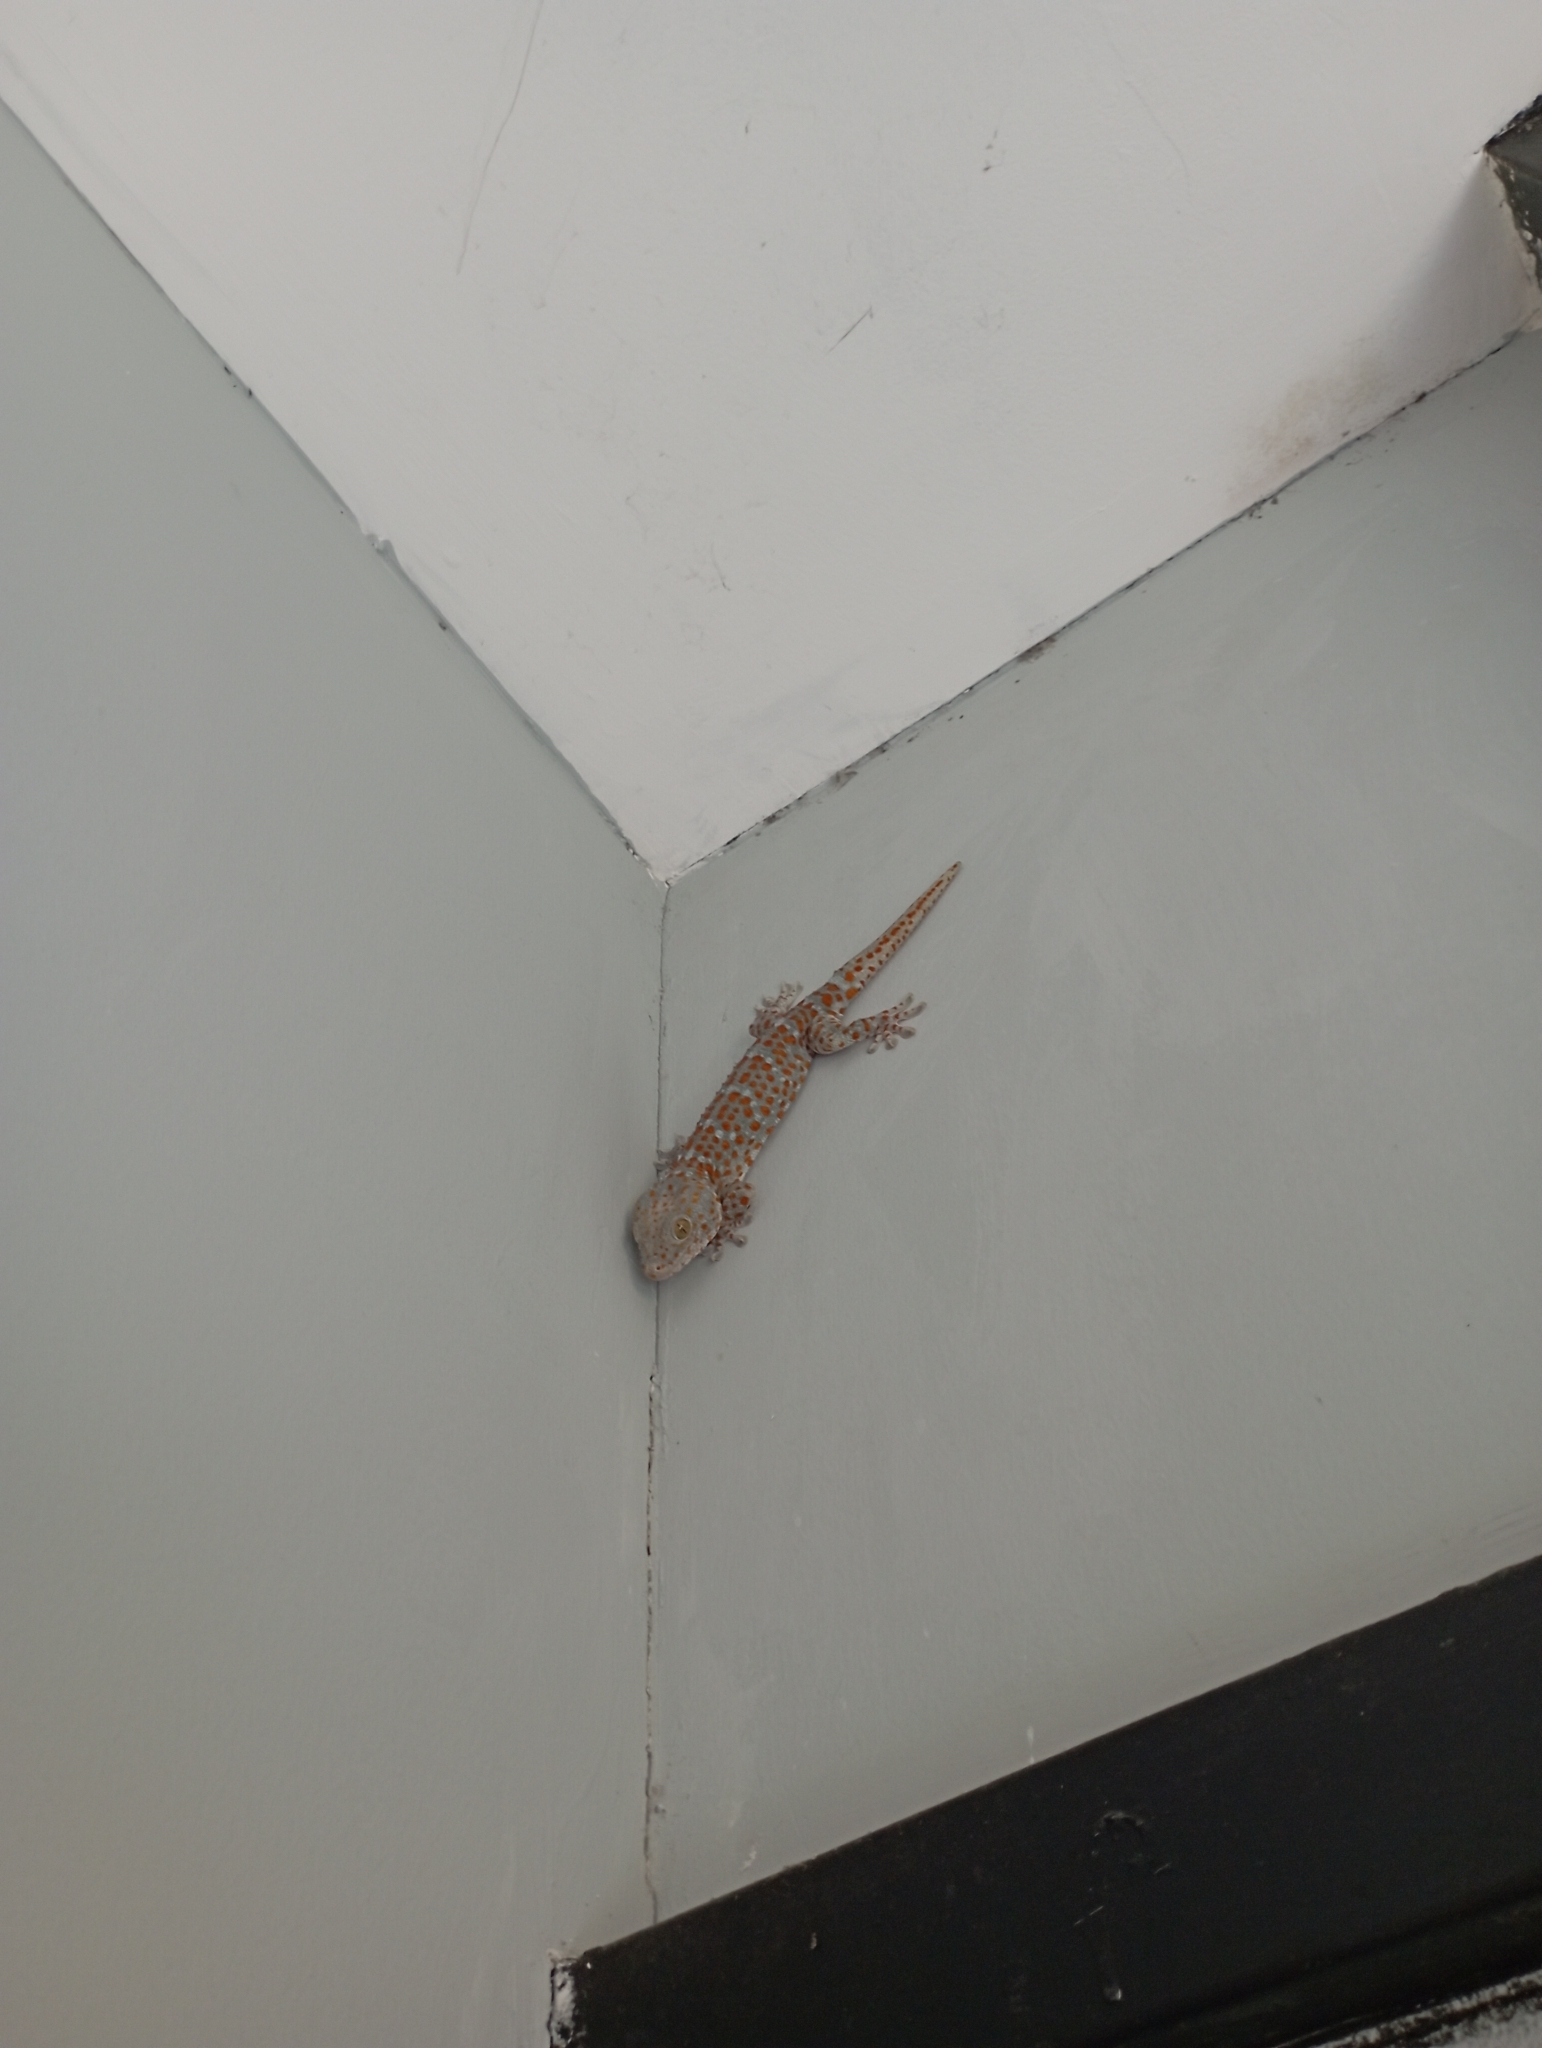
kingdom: Animalia
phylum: Chordata
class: Squamata
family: Gekkonidae
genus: Gekko
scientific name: Gekko gecko
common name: Tokay gecko
